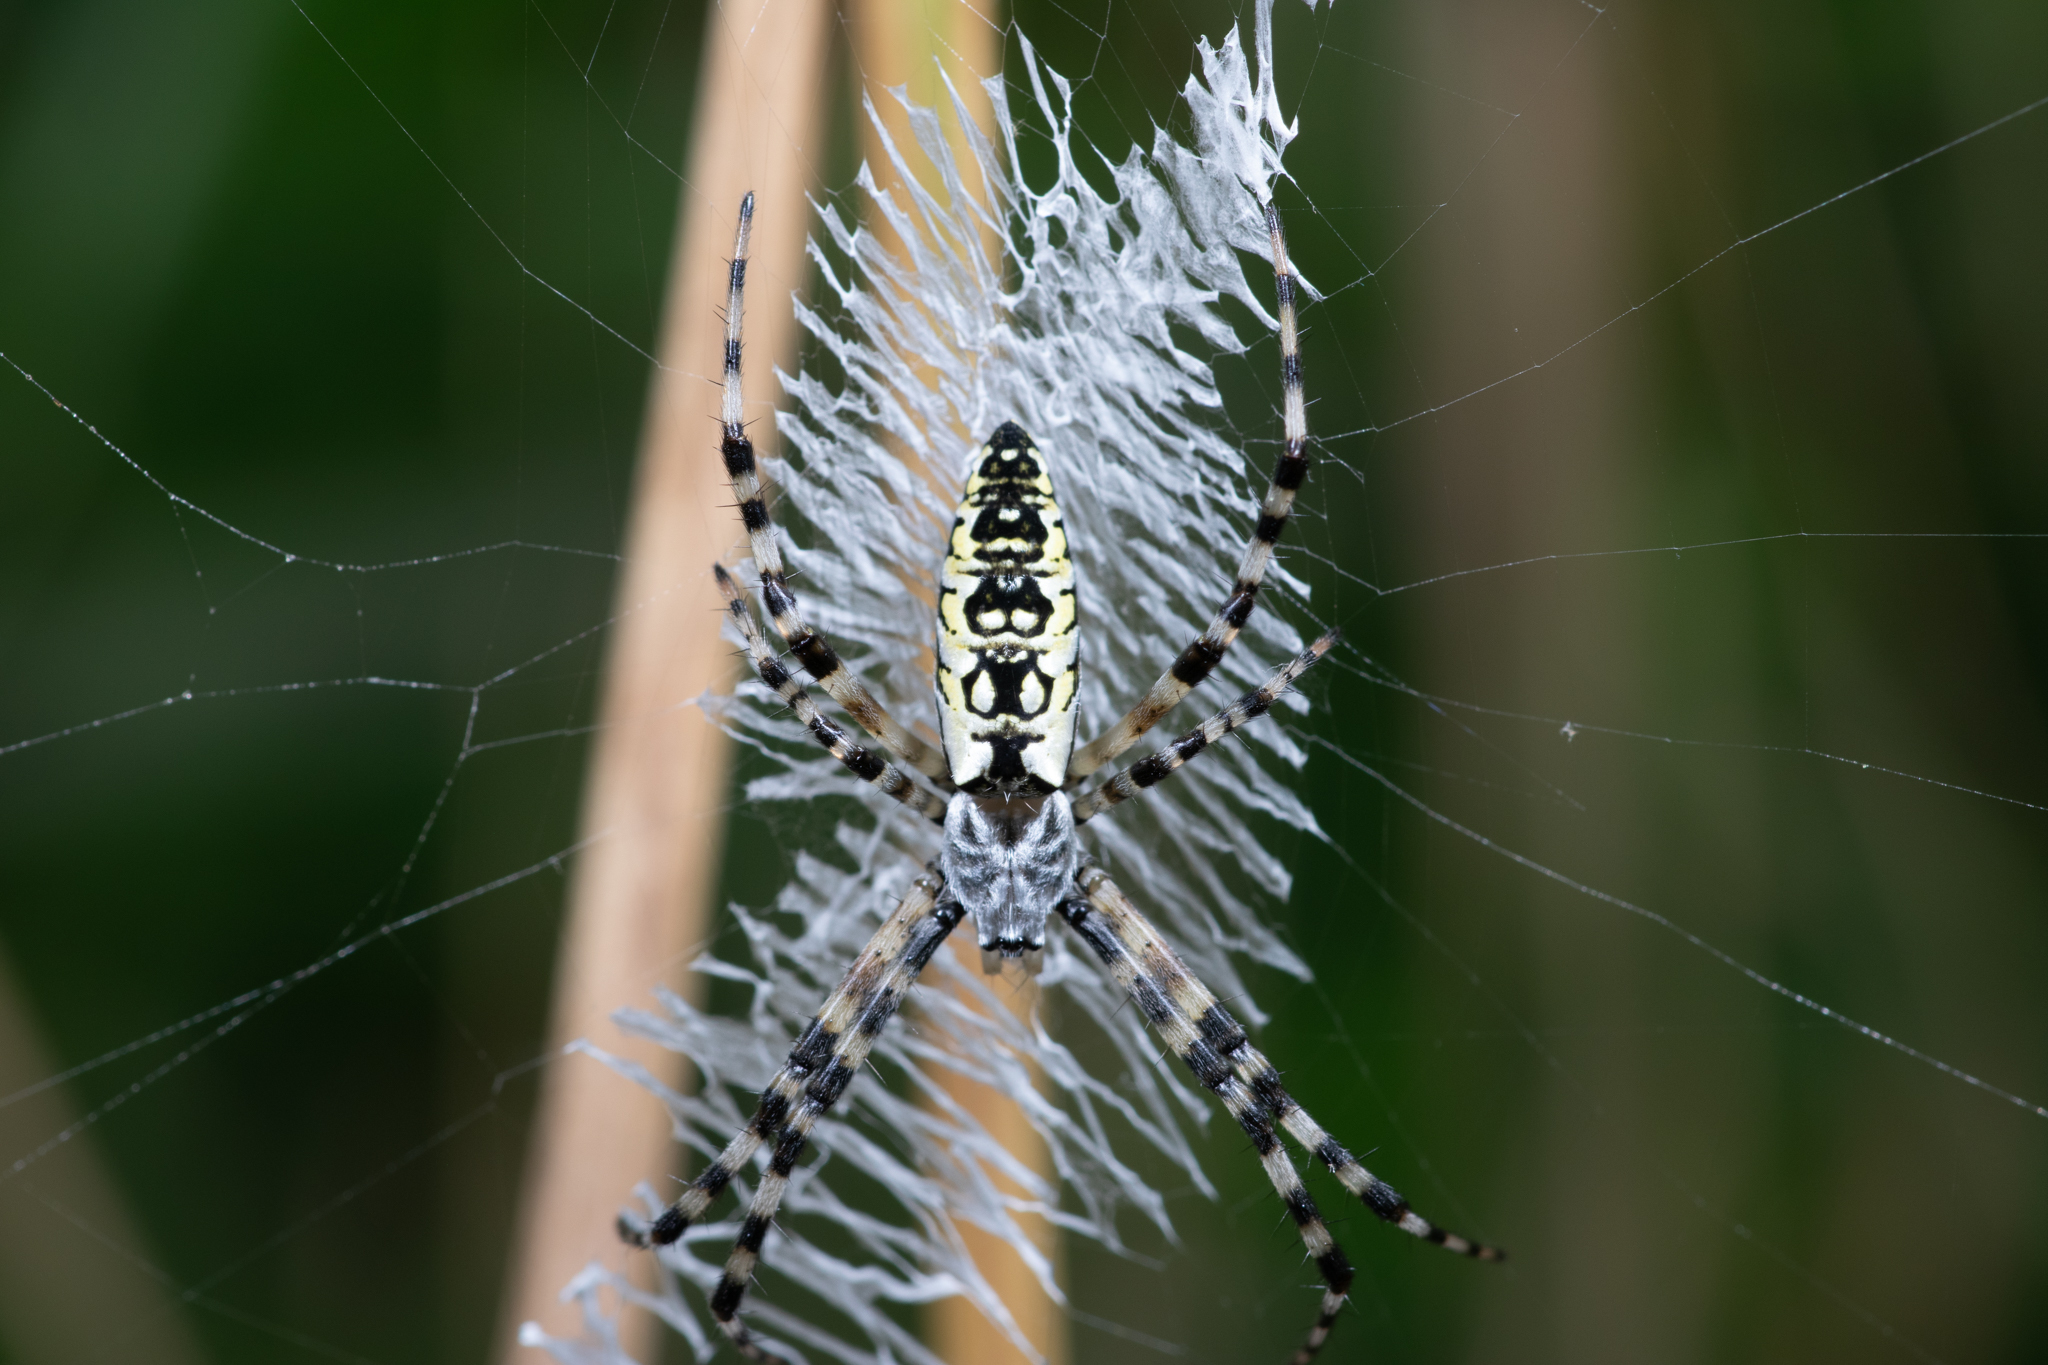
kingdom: Animalia
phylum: Arthropoda
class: Arachnida
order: Araneae
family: Araneidae
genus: Argiope
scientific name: Argiope aurantia
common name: Orb weavers
